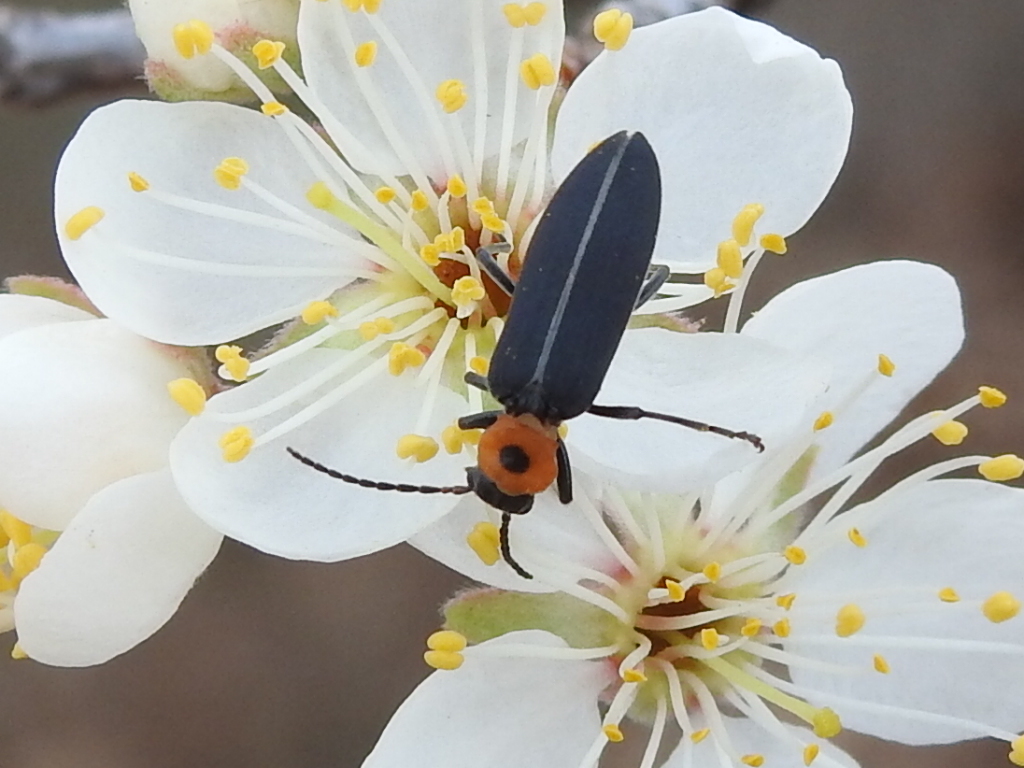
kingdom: Animalia
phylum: Arthropoda
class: Insecta
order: Coleoptera
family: Oedemeridae
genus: Ischnomera
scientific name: Ischnomera
